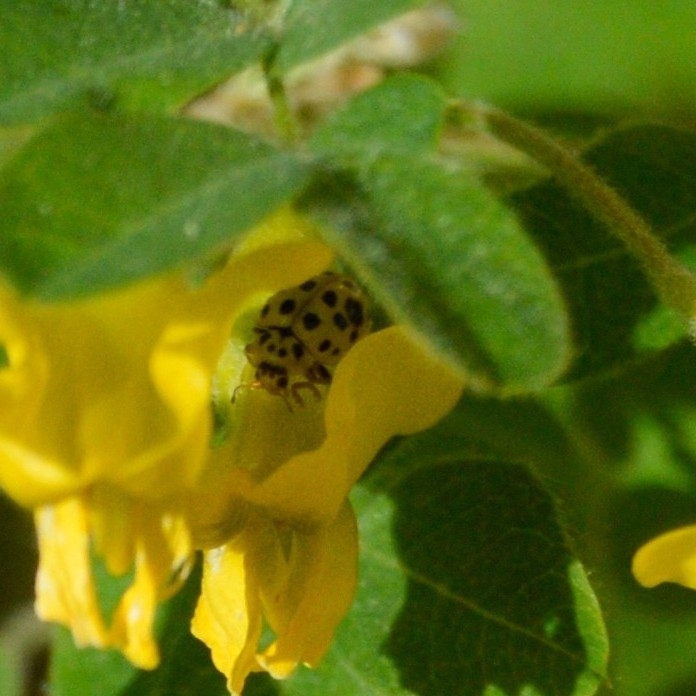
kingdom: Animalia
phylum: Arthropoda
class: Insecta
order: Coleoptera
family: Coccinellidae
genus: Psyllobora
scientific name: Psyllobora vigintiduopunctata
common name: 22-spot ladybird
